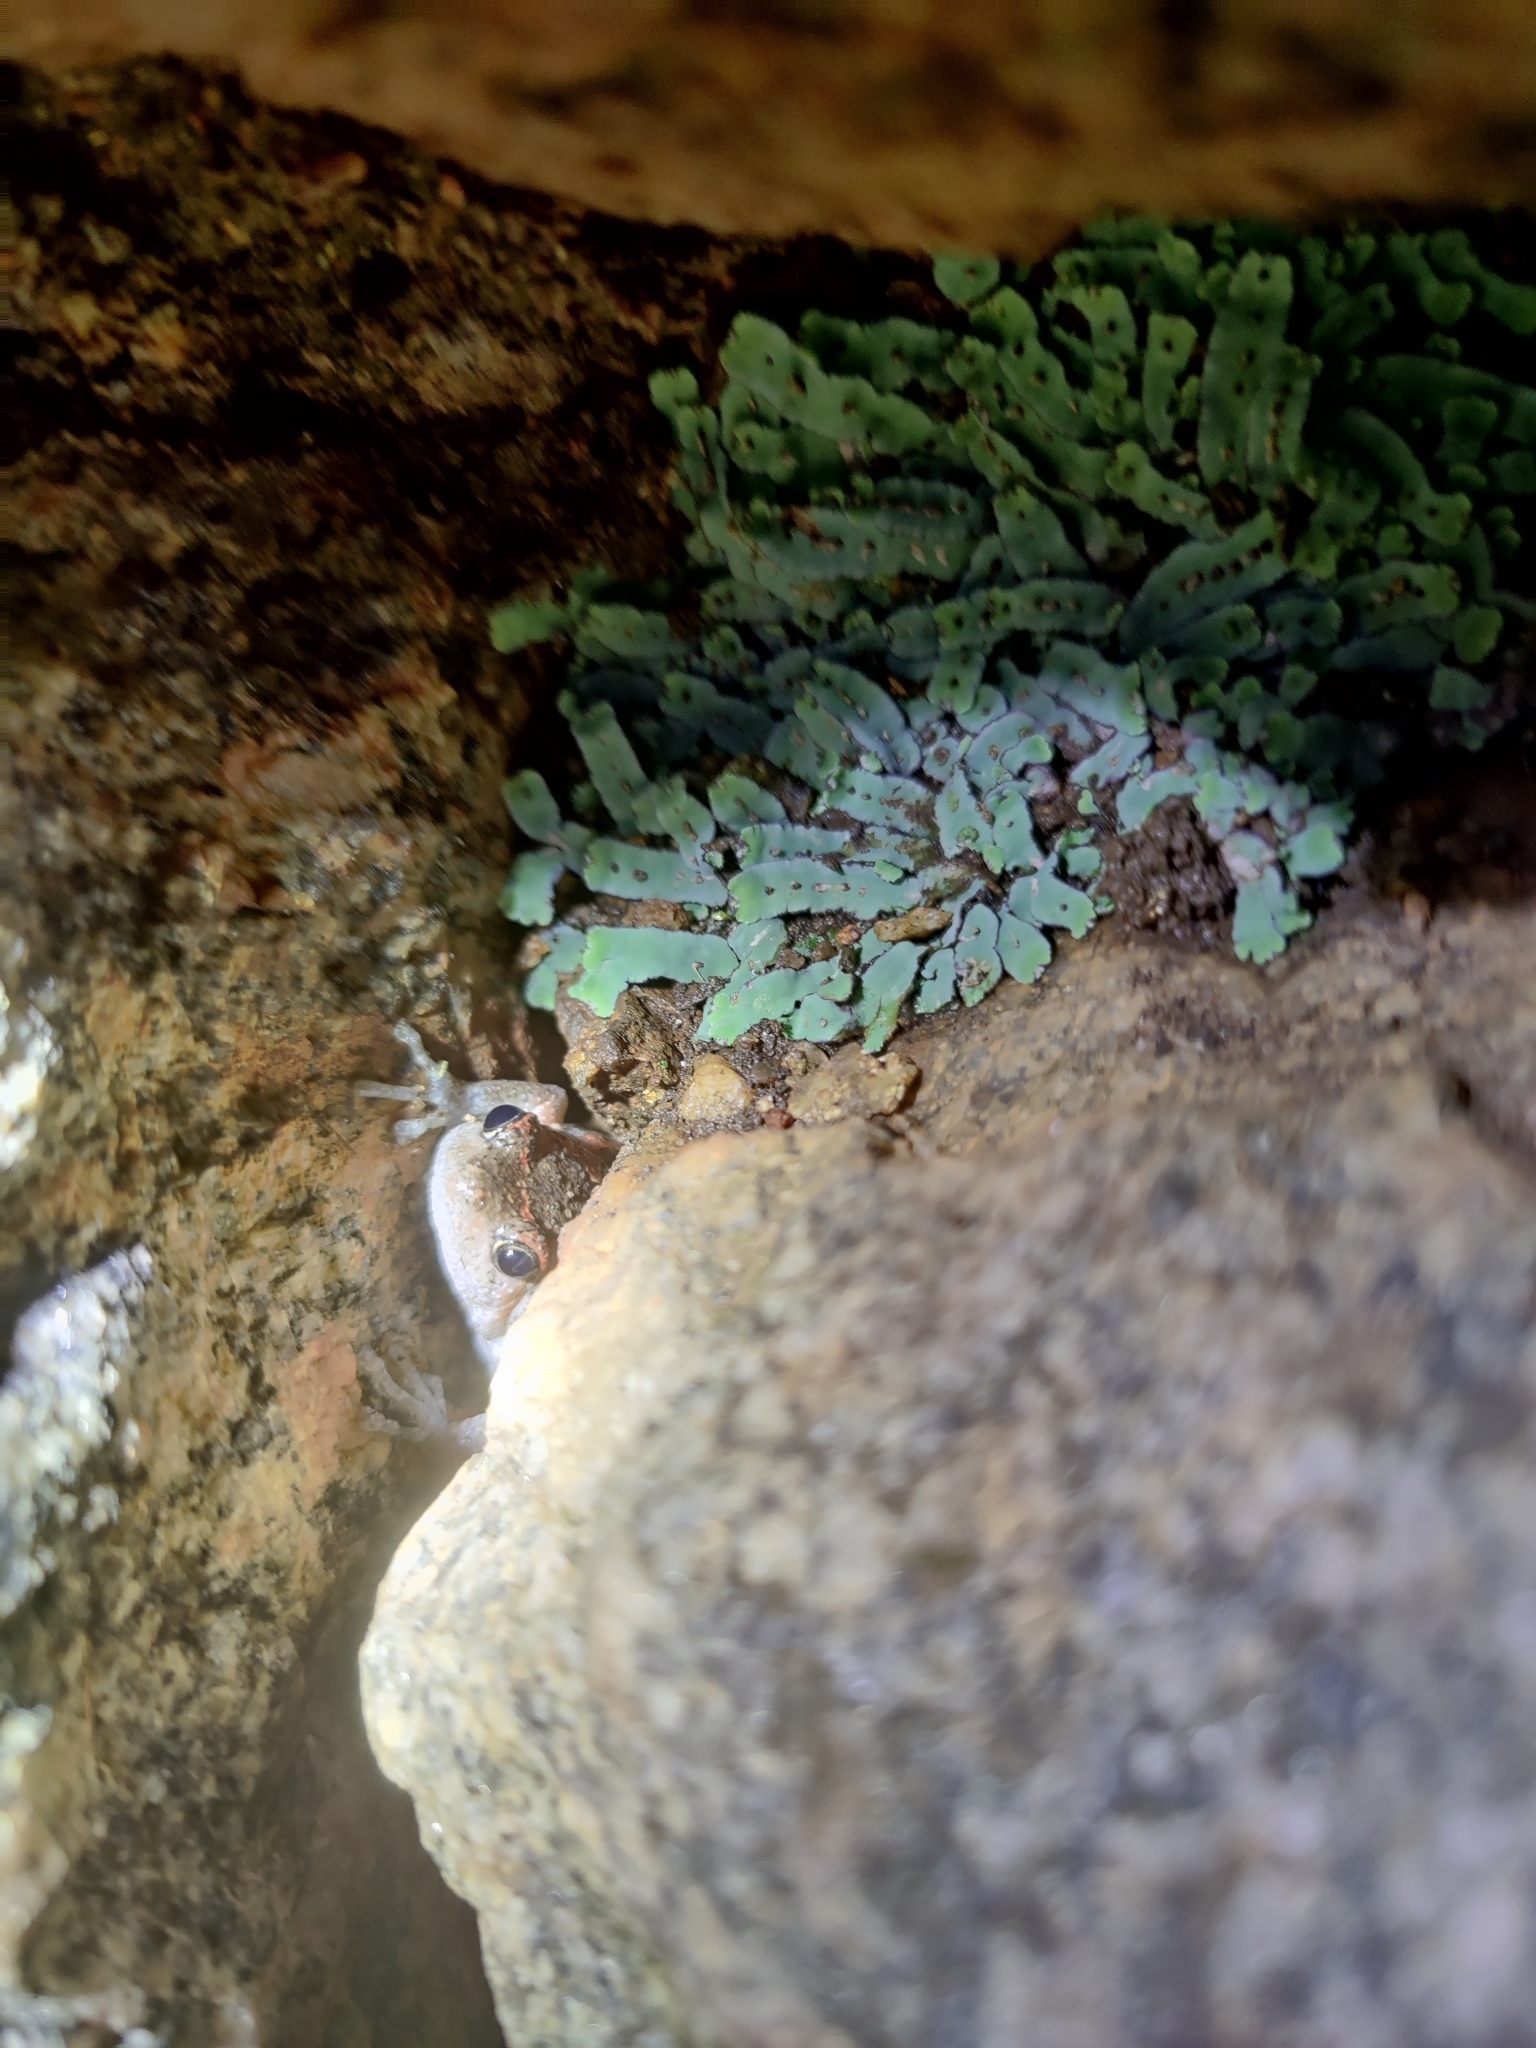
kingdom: Animalia
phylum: Chordata
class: Amphibia
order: Anura
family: Microhylidae
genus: Uperodon
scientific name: Uperodon taprobanicus
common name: Ceylon kaloula
